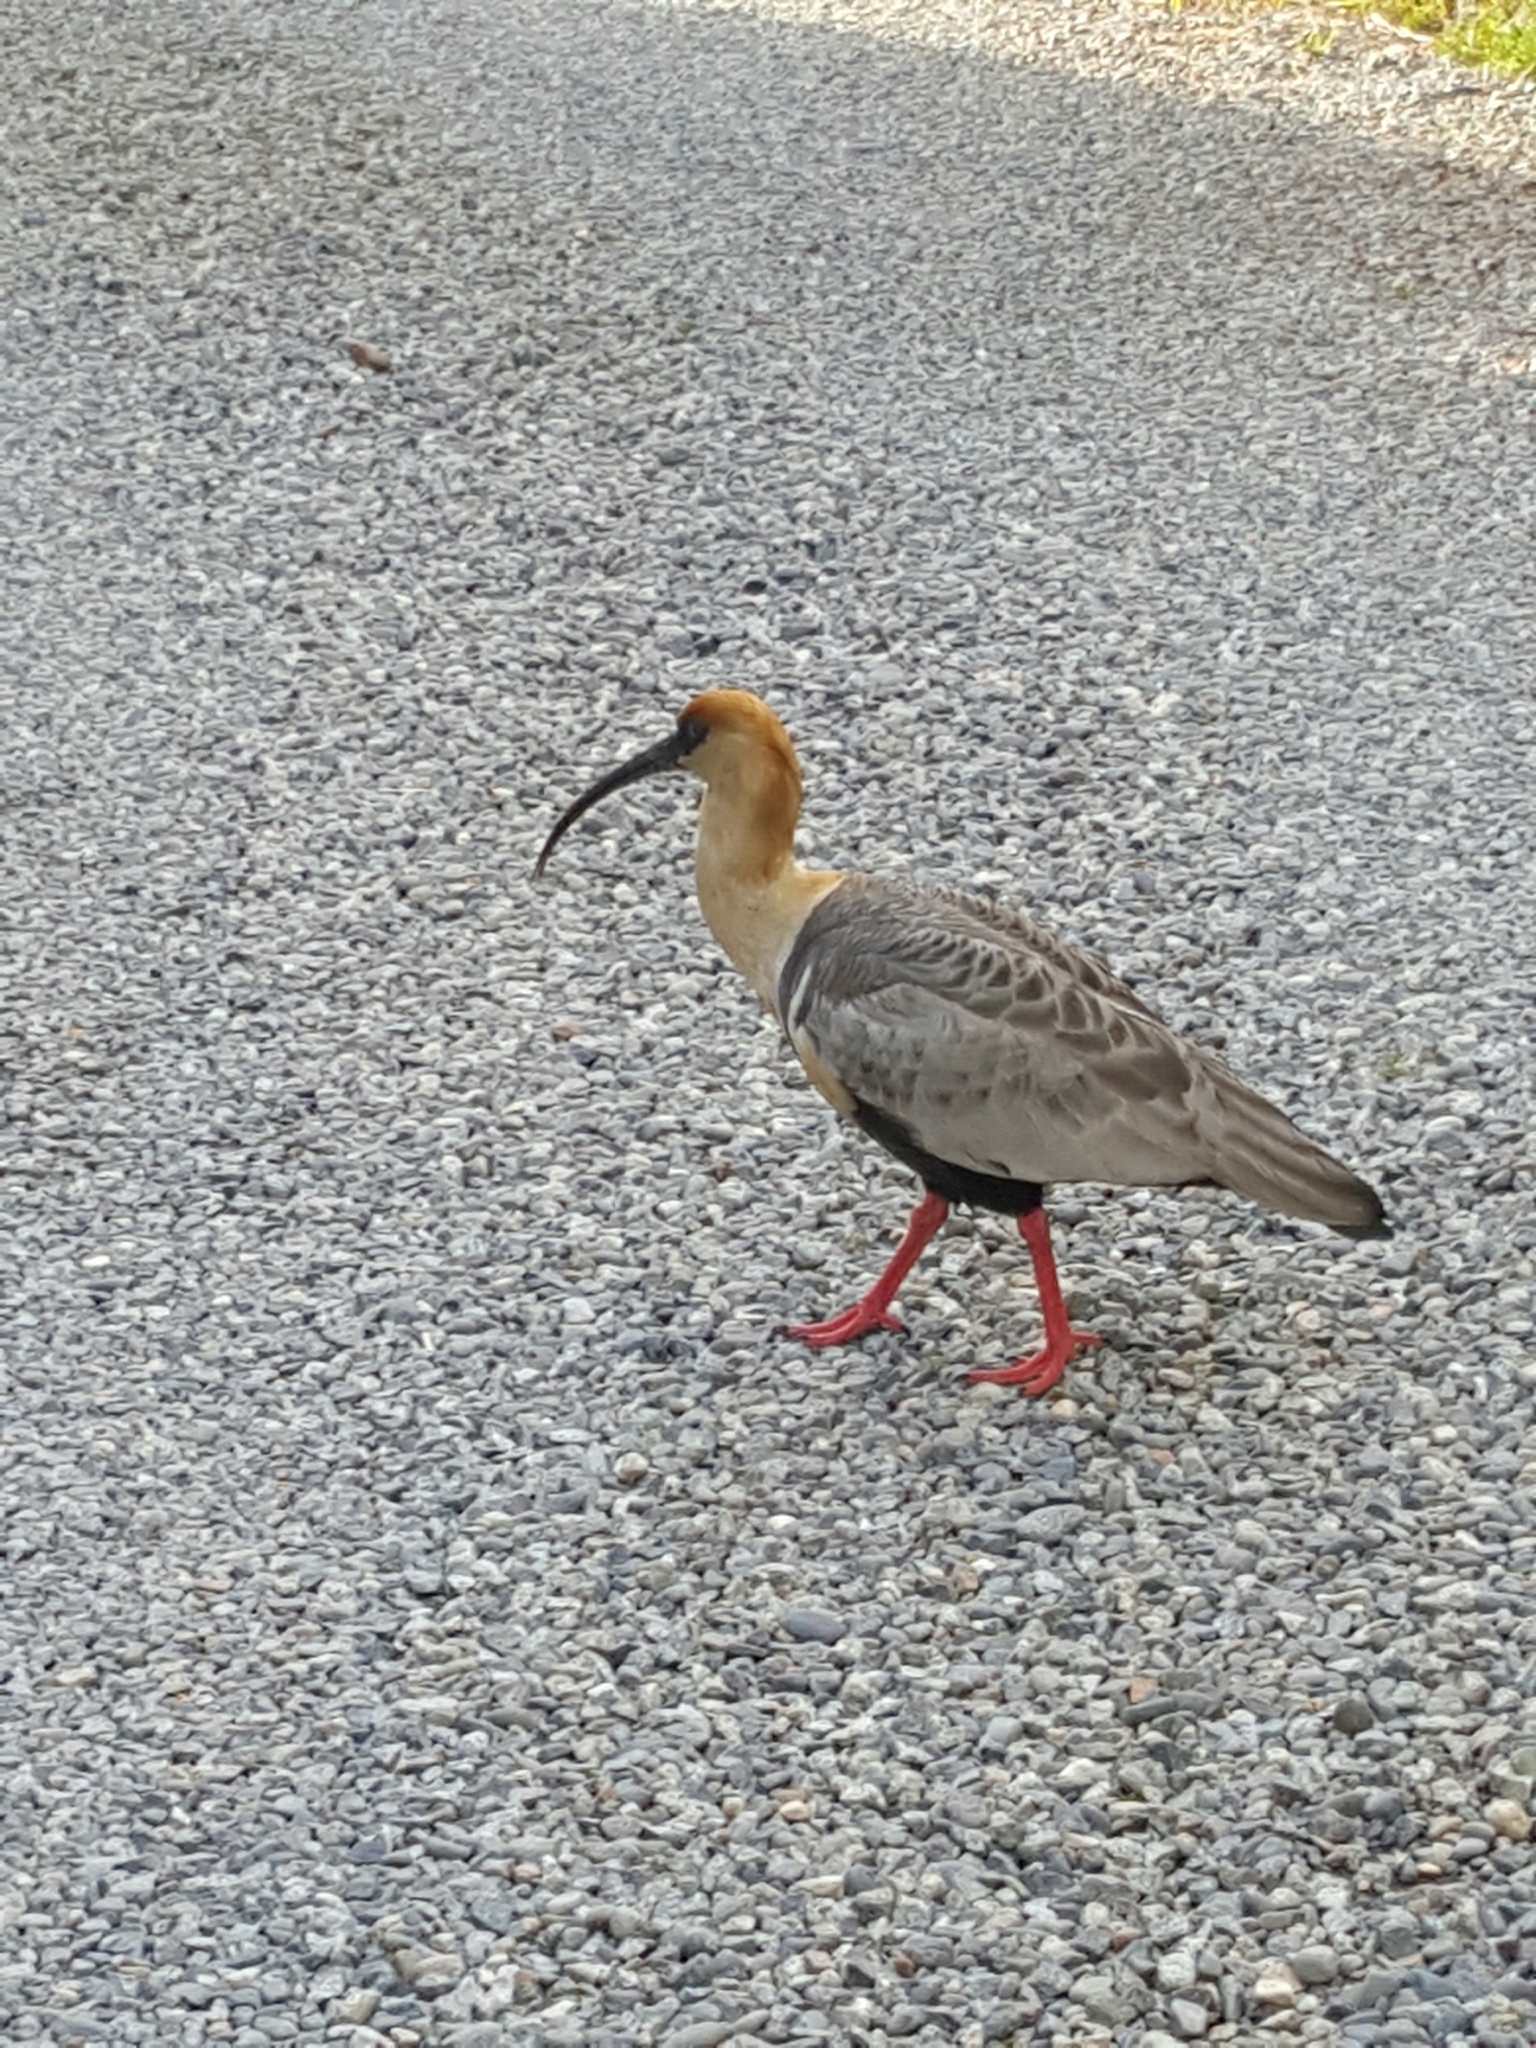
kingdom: Animalia
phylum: Chordata
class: Aves
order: Pelecaniformes
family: Threskiornithidae
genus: Theristicus
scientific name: Theristicus melanopis
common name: Black-faced ibis
